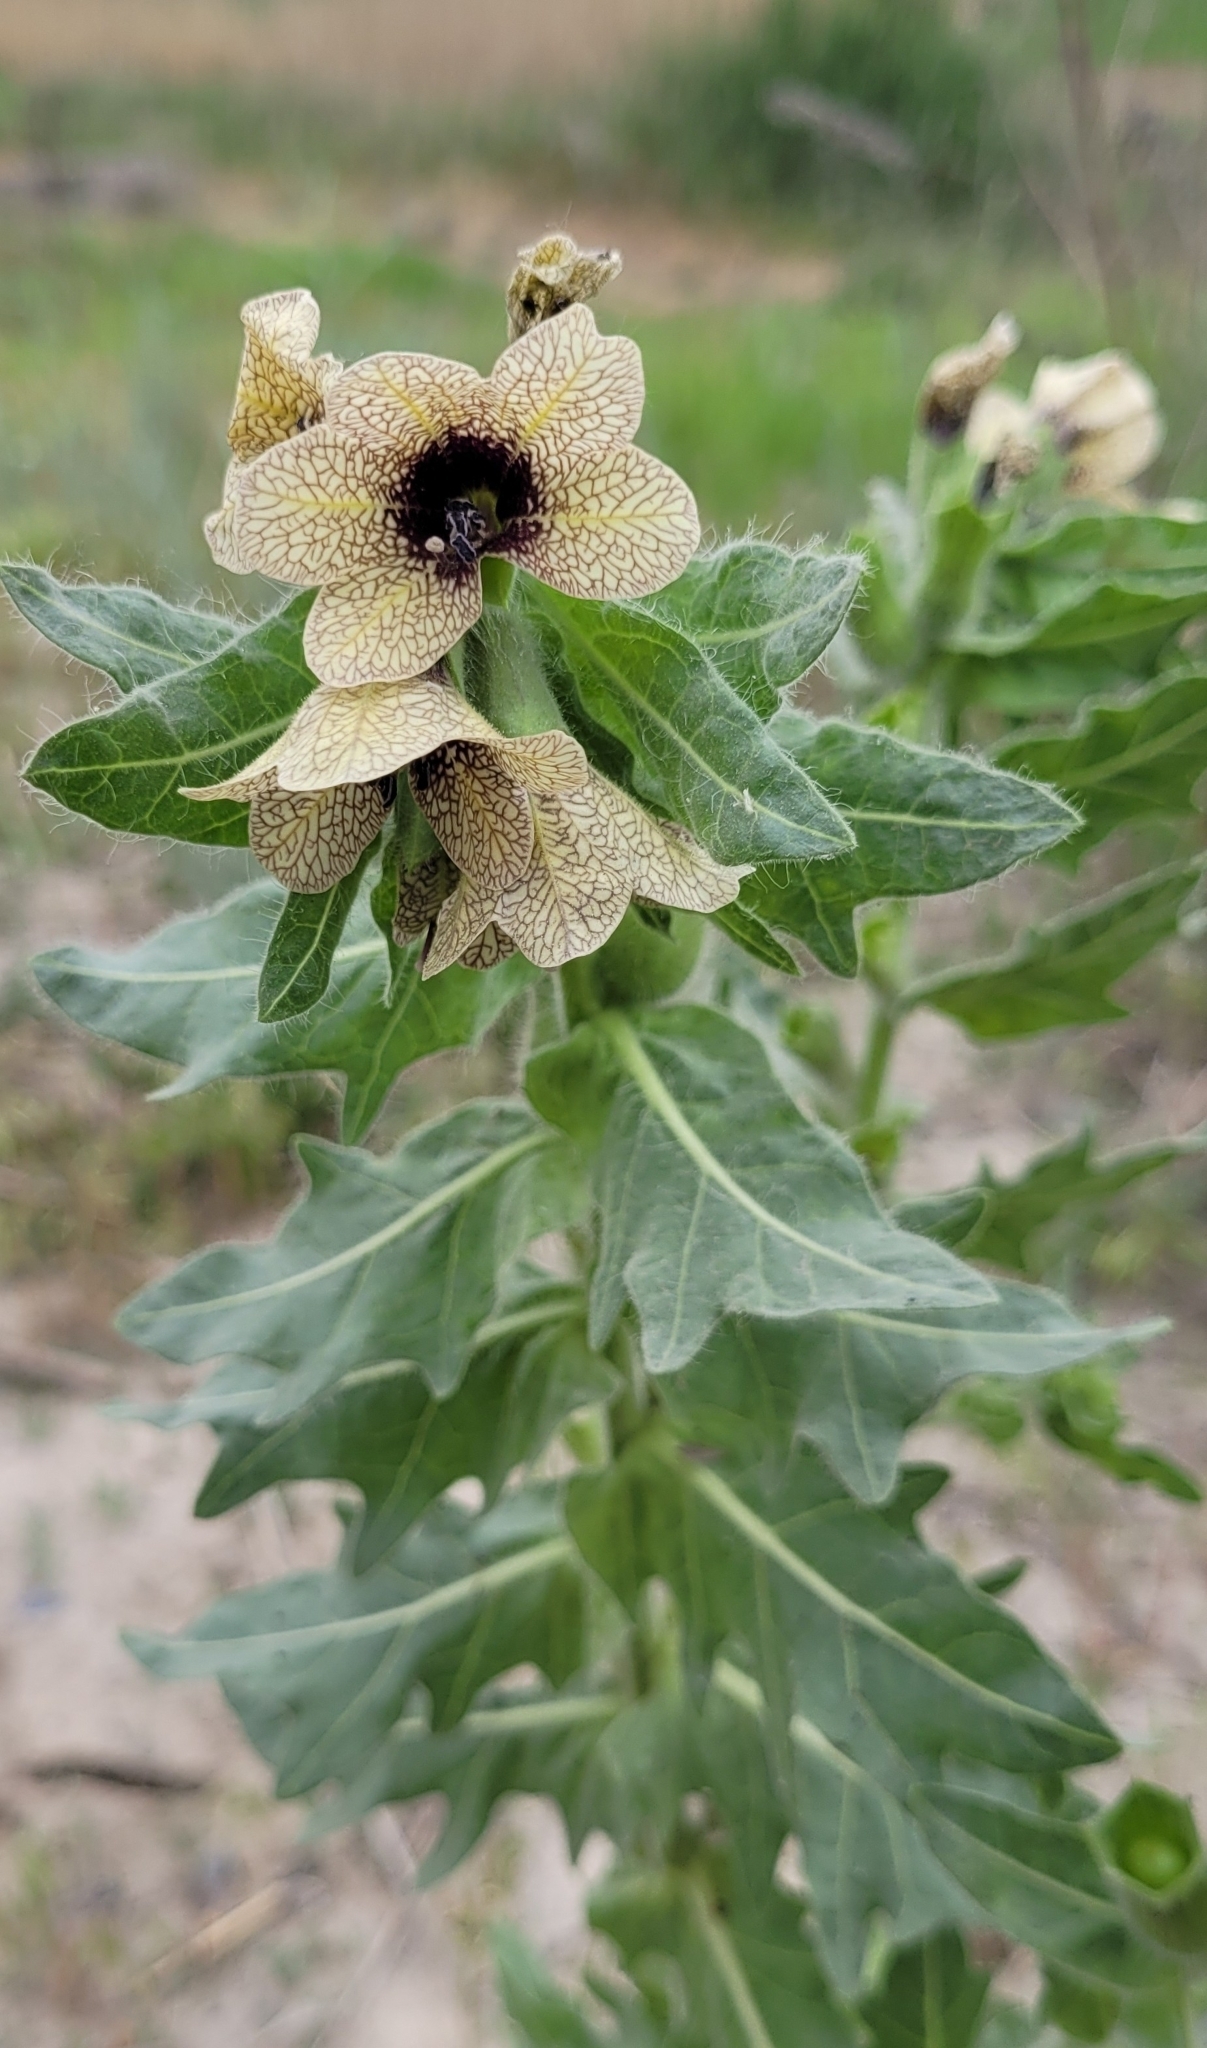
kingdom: Plantae
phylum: Tracheophyta
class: Magnoliopsida
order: Solanales
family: Solanaceae
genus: Hyoscyamus
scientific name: Hyoscyamus niger
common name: Henbane
